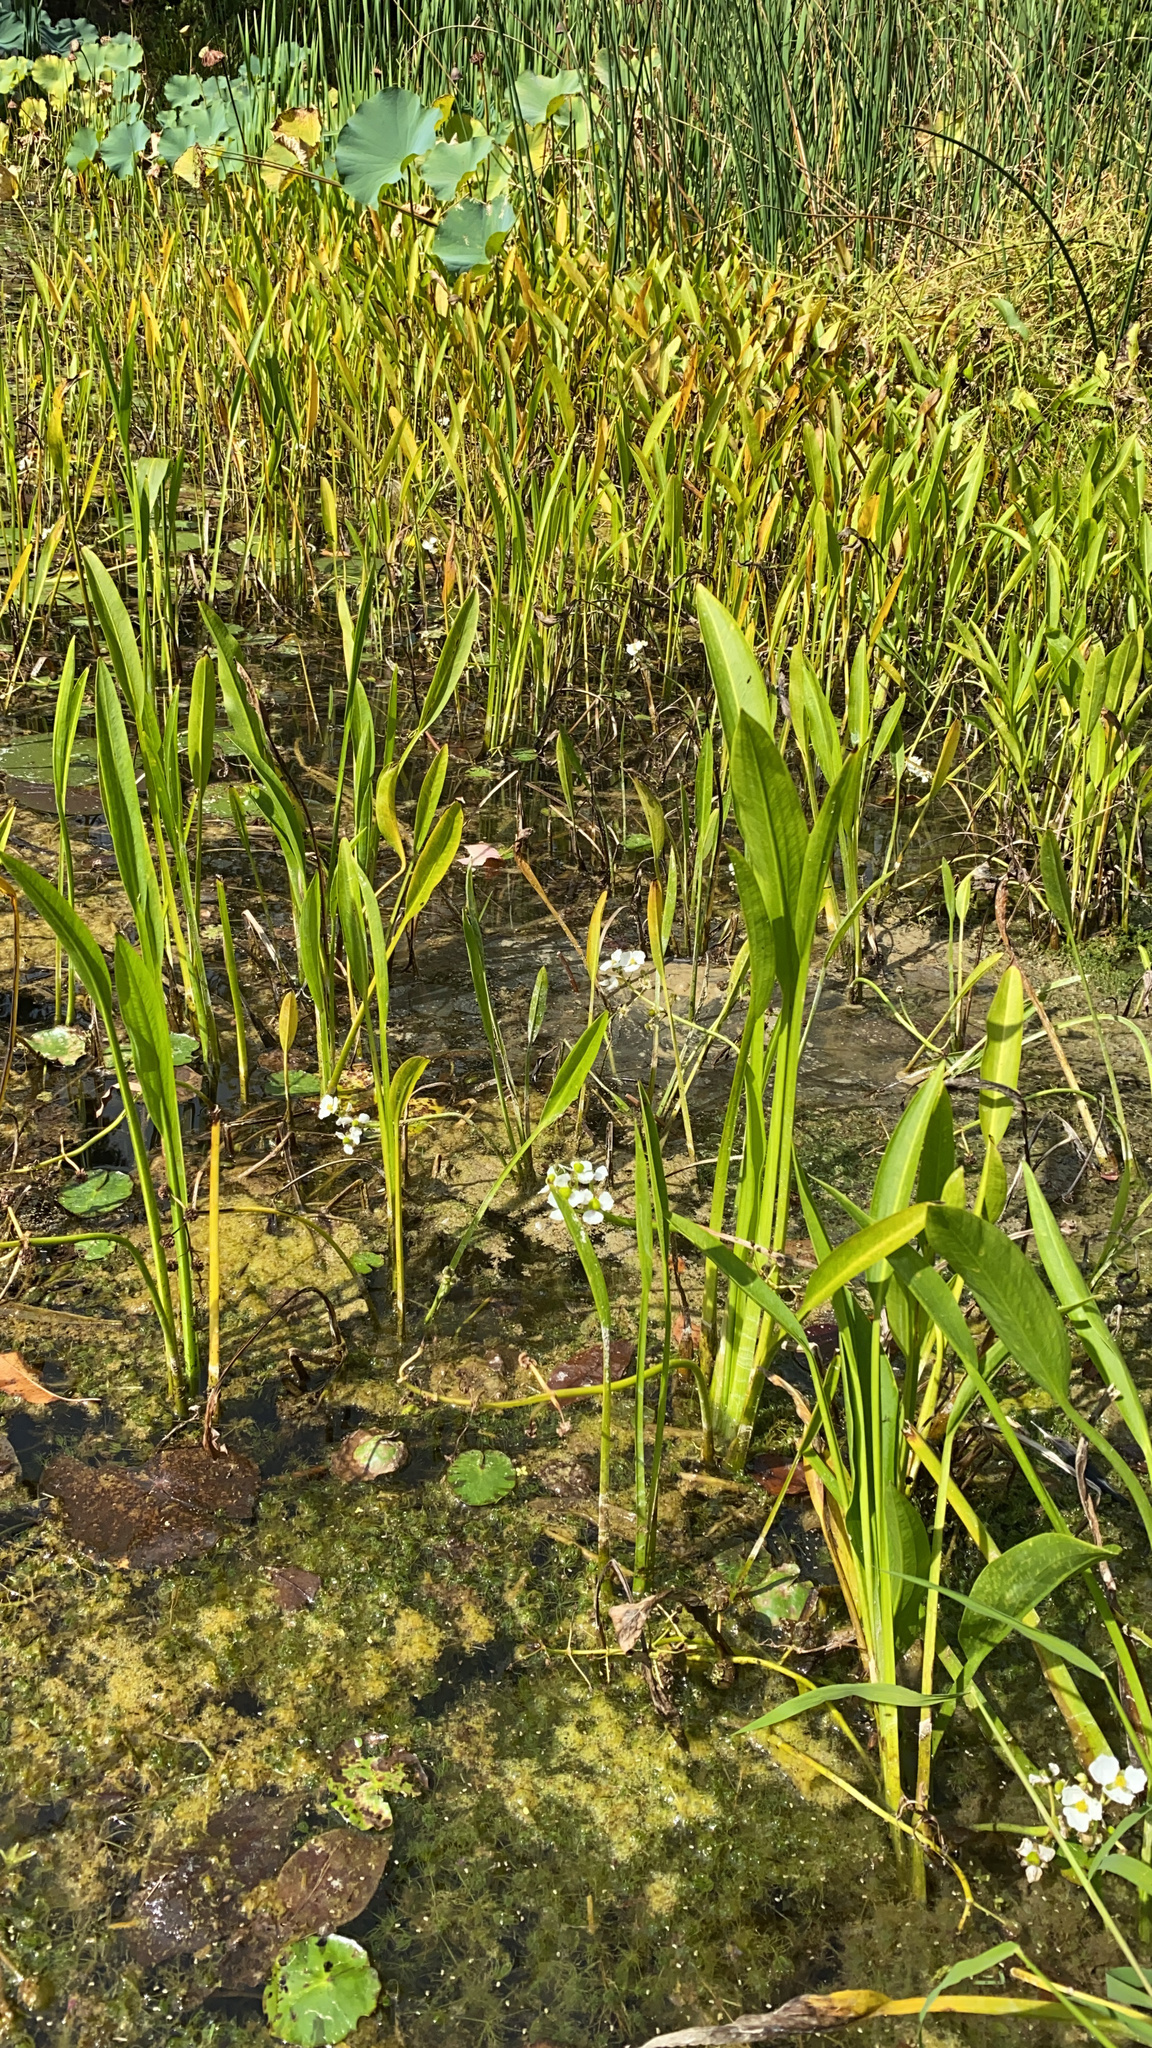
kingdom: Plantae
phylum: Tracheophyta
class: Liliopsida
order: Alismatales
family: Alismataceae
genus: Sagittaria
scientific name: Sagittaria platyphylla
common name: Broad-leaf arrowhead
